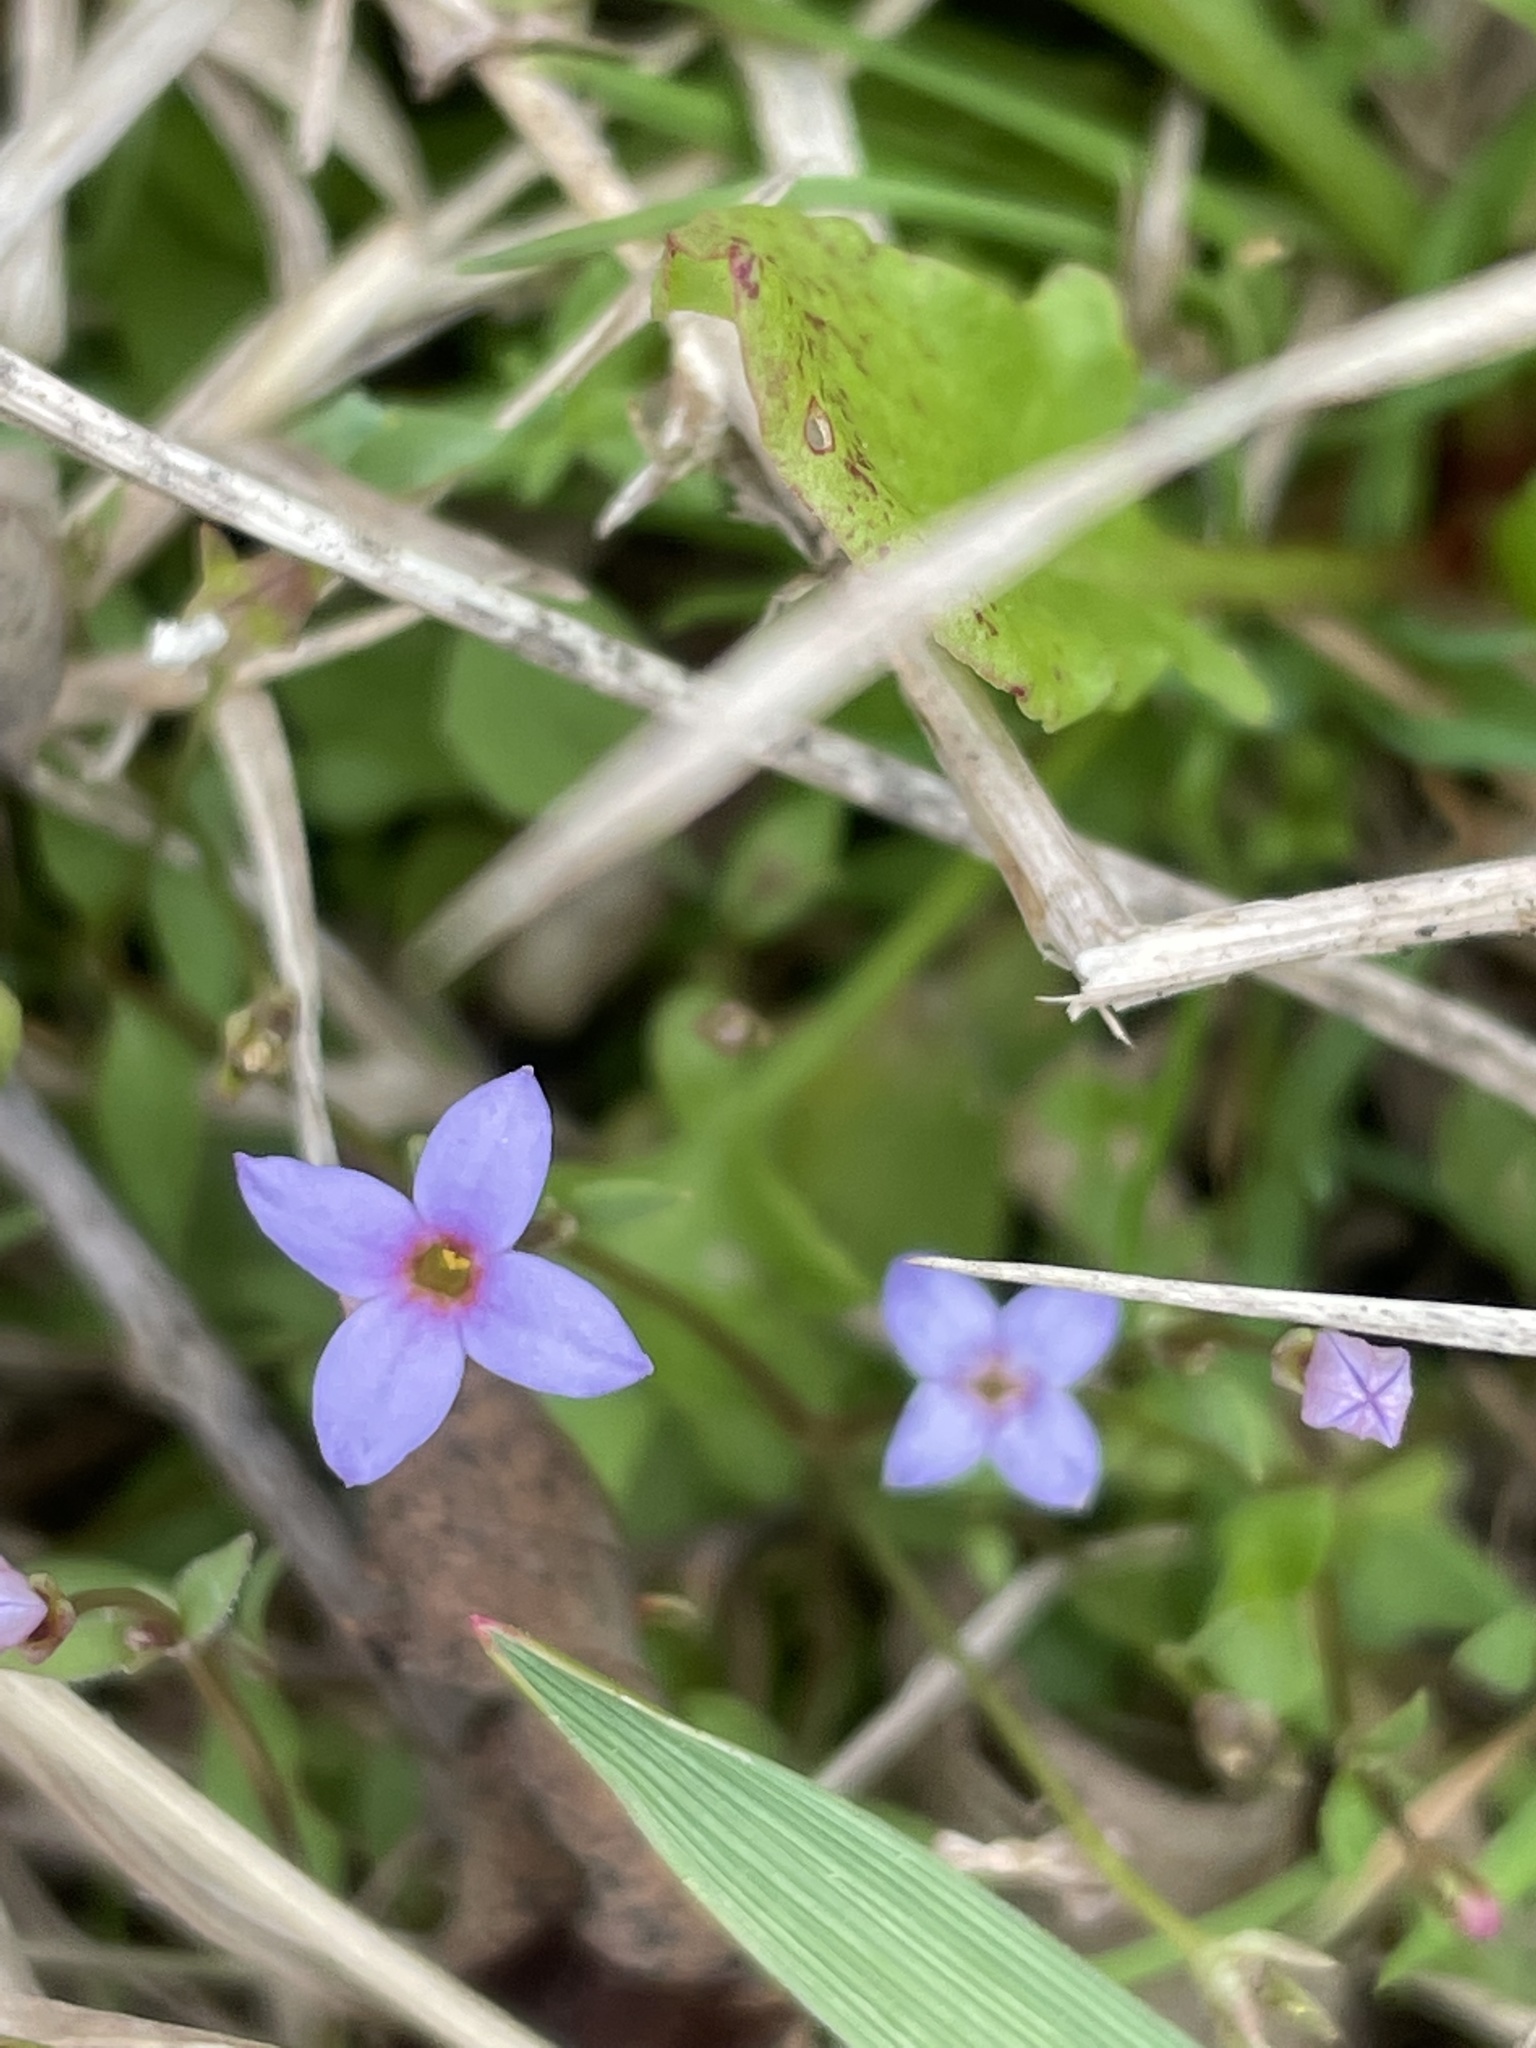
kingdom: Plantae
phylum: Tracheophyta
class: Magnoliopsida
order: Gentianales
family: Rubiaceae
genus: Houstonia
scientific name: Houstonia pusilla
